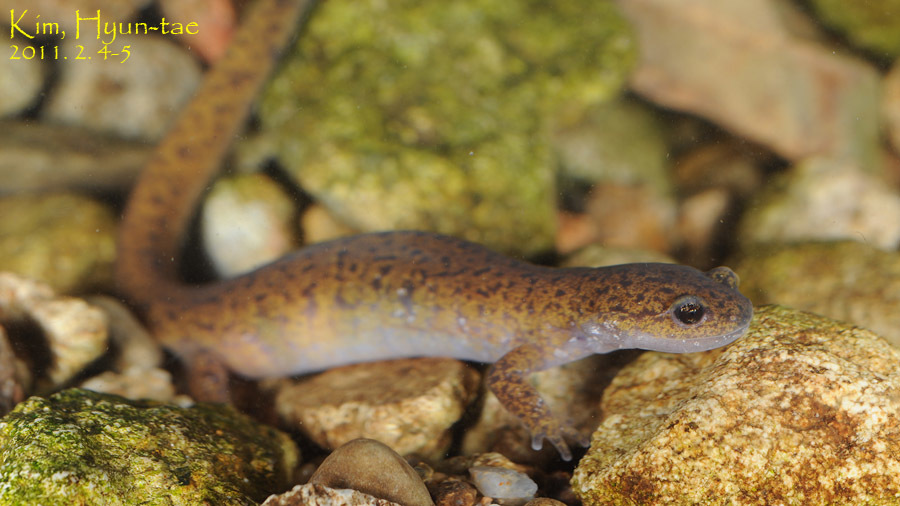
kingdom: Animalia
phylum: Chordata
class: Amphibia
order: Caudata
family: Hynobiidae
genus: Hynobius
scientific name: Hynobius leechii
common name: Gensan salamander
